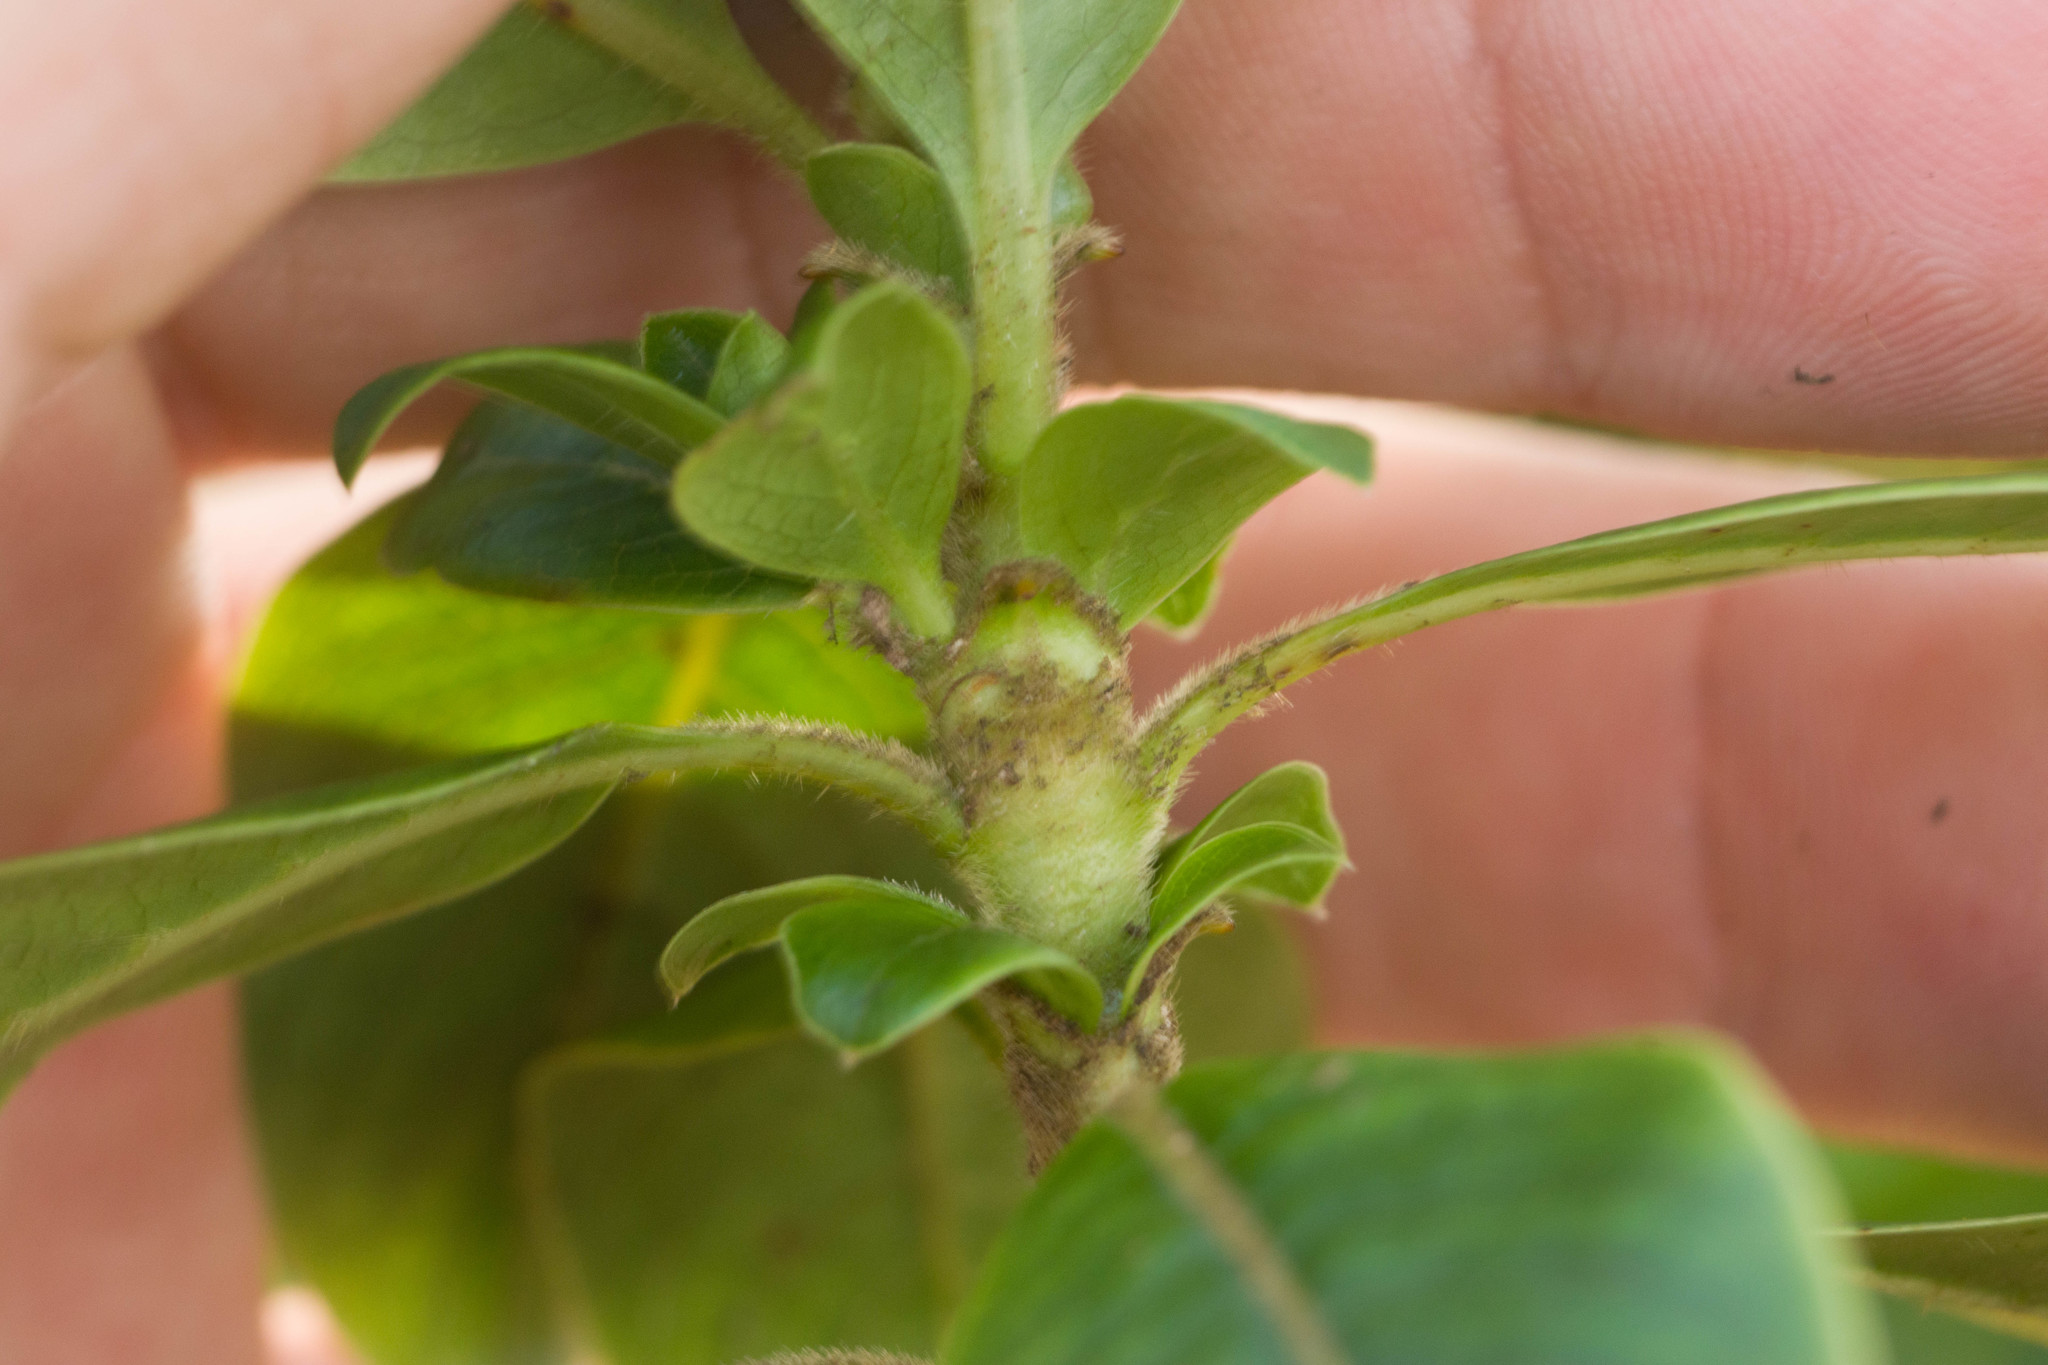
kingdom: Plantae
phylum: Tracheophyta
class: Magnoliopsida
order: Gentianales
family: Rubiaceae
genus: Coprosma
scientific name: Coprosma ochracea
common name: Maui mirrorplant
